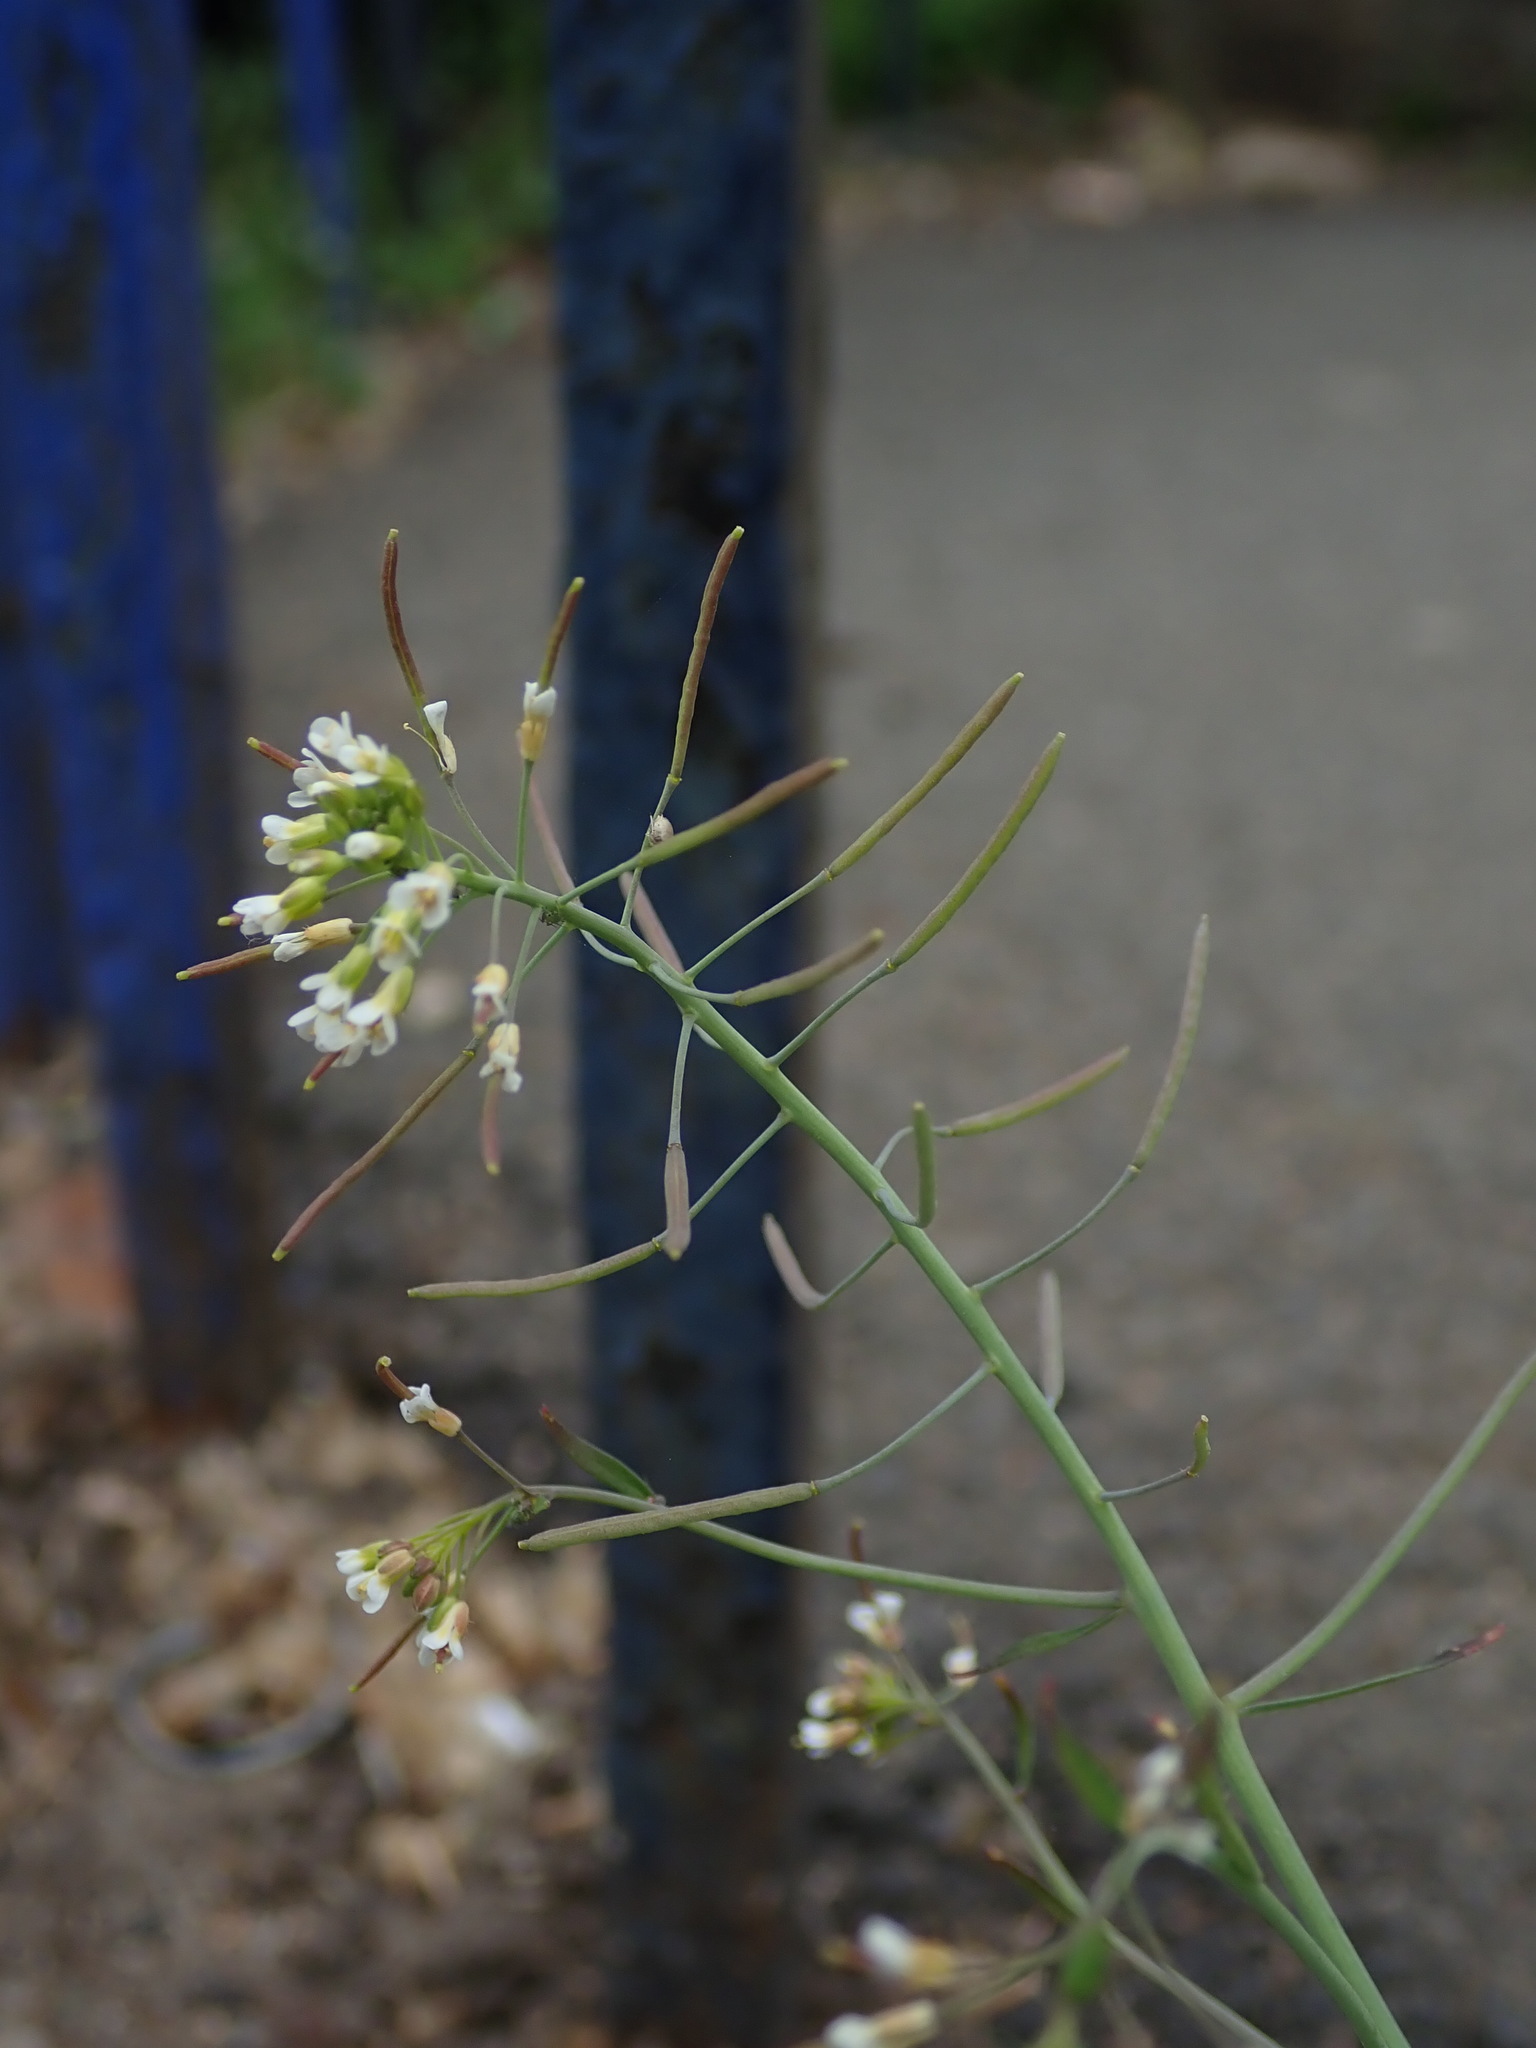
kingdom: Plantae
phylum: Tracheophyta
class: Magnoliopsida
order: Brassicales
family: Brassicaceae
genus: Arabidopsis
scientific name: Arabidopsis thaliana
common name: Thale cress
